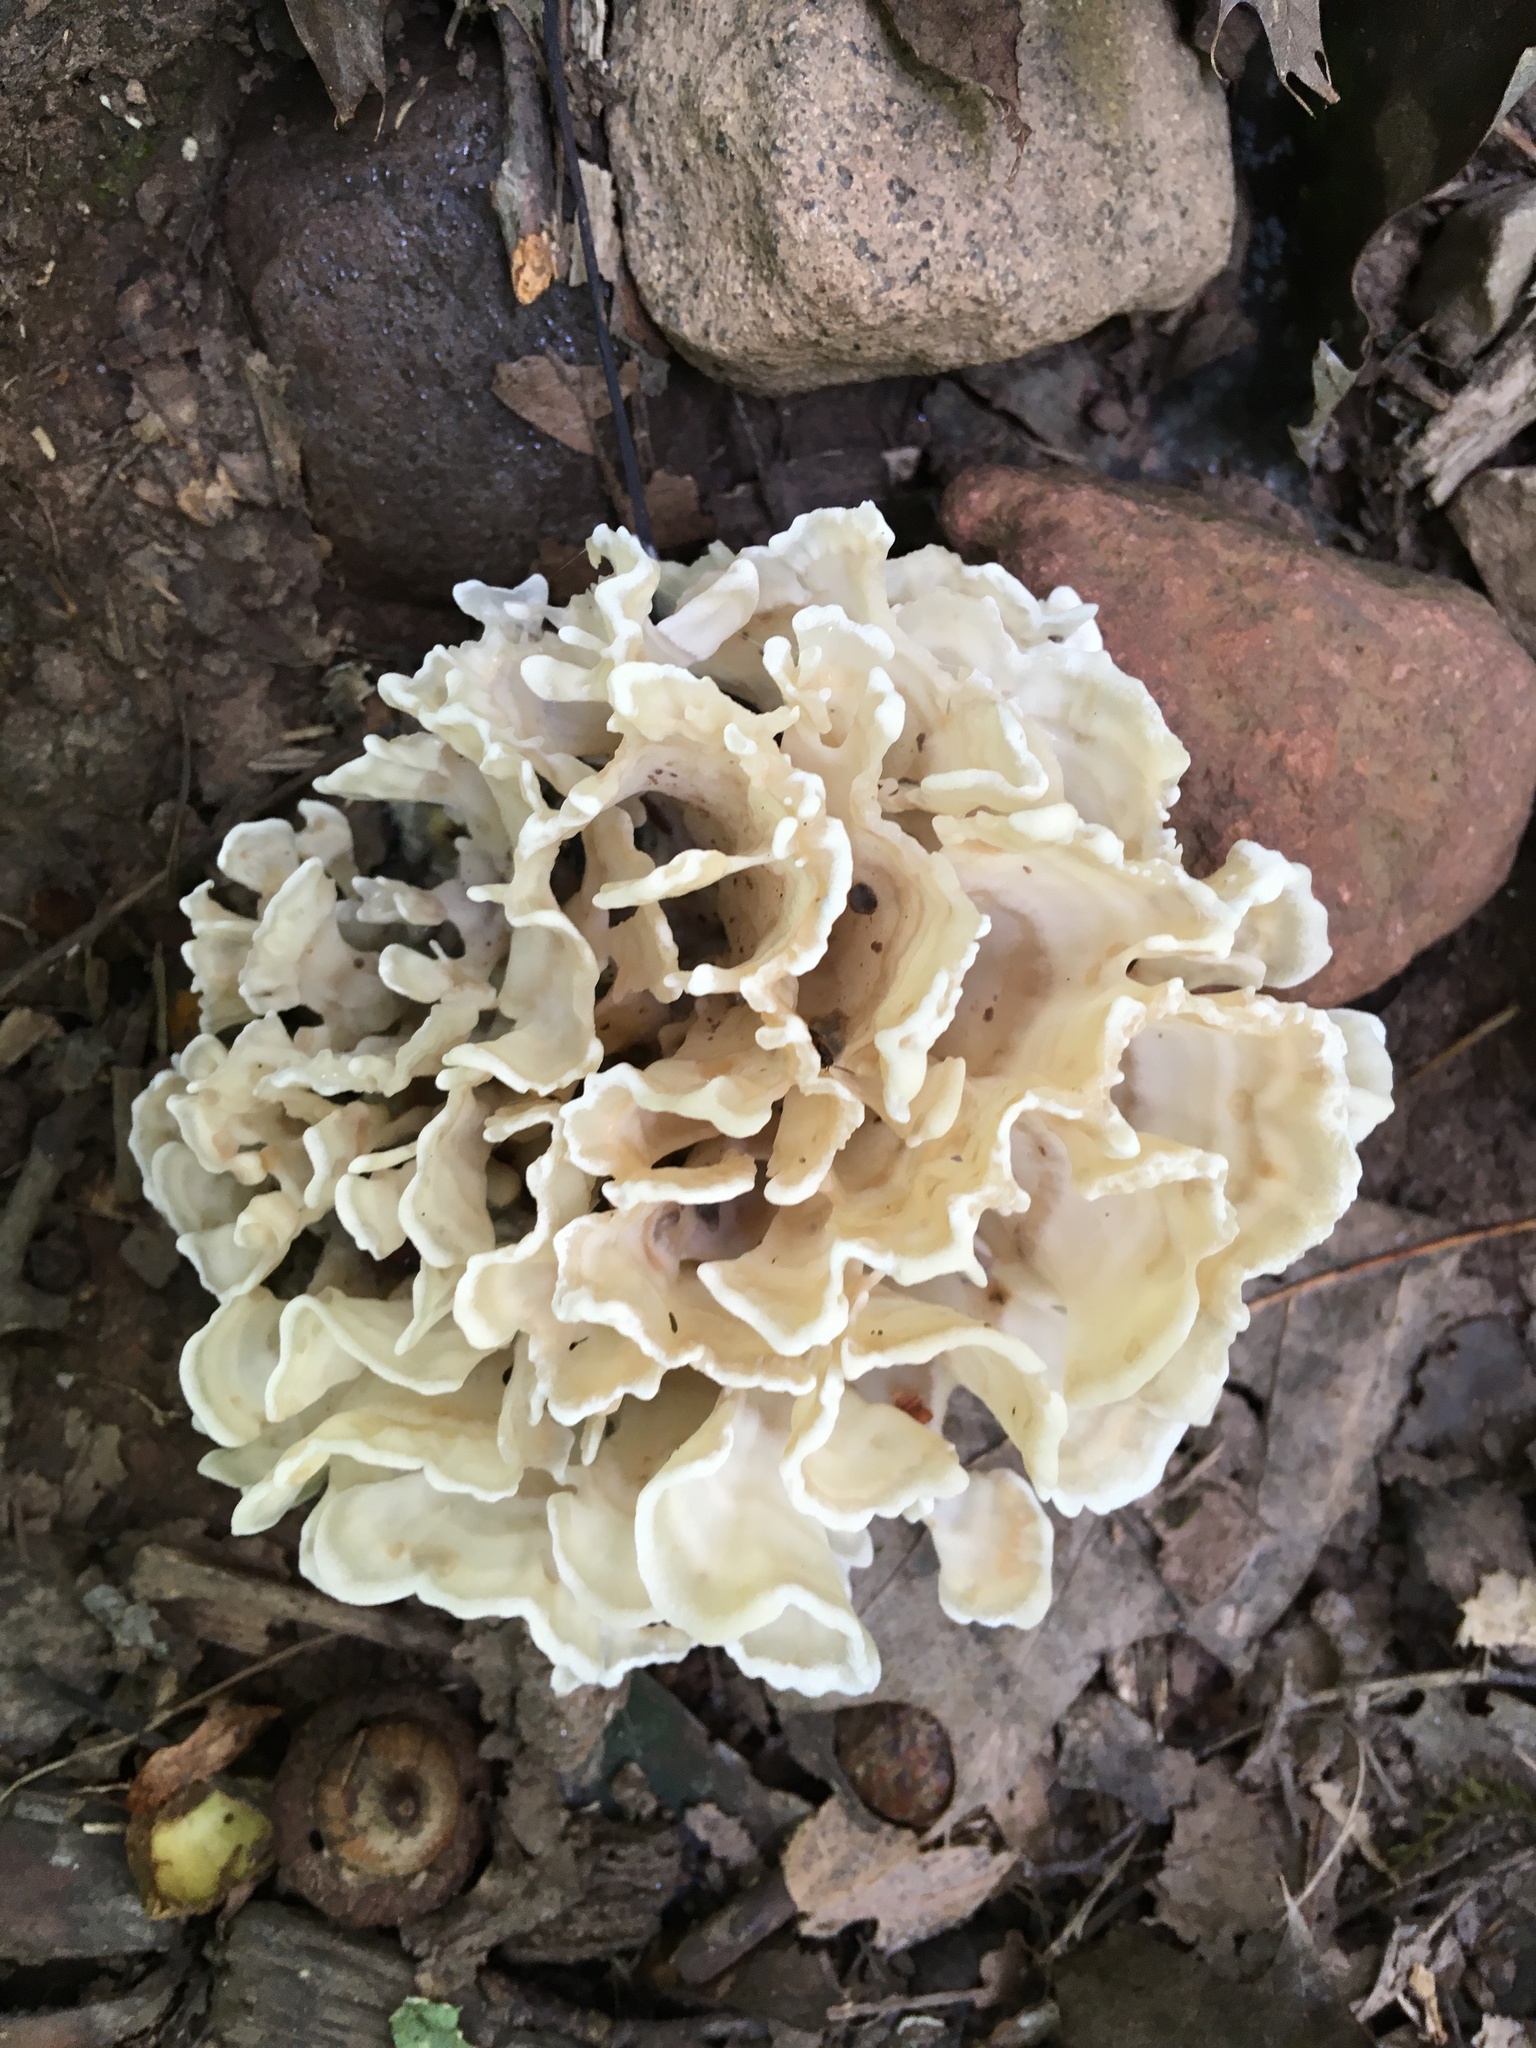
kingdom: Fungi
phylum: Basidiomycota
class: Agaricomycetes
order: Polyporales
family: Sparassidaceae
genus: Sparassis
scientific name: Sparassis spathulata
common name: Eastern cauliflower mushroom
